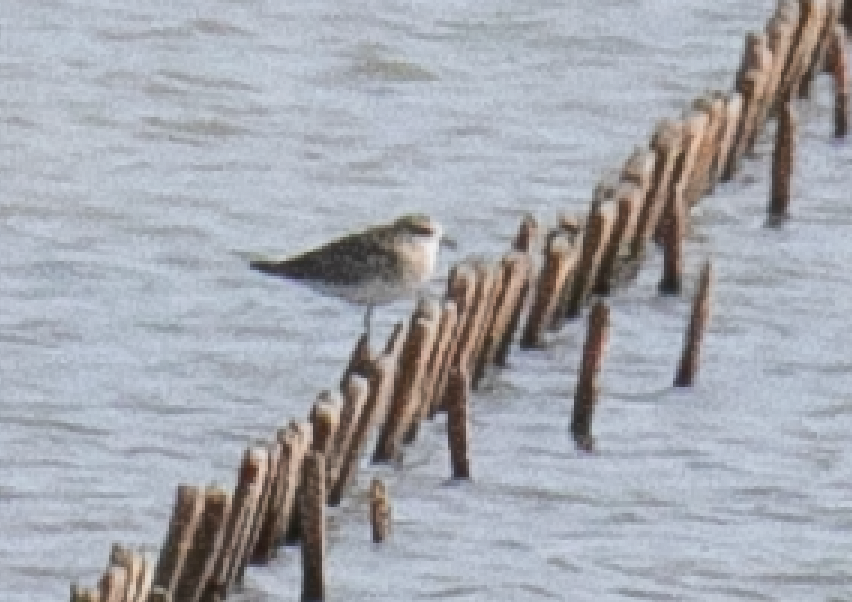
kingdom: Animalia
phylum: Chordata
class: Aves
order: Charadriiformes
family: Charadriidae
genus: Pluvialis
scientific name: Pluvialis squatarola
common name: Grey plover
